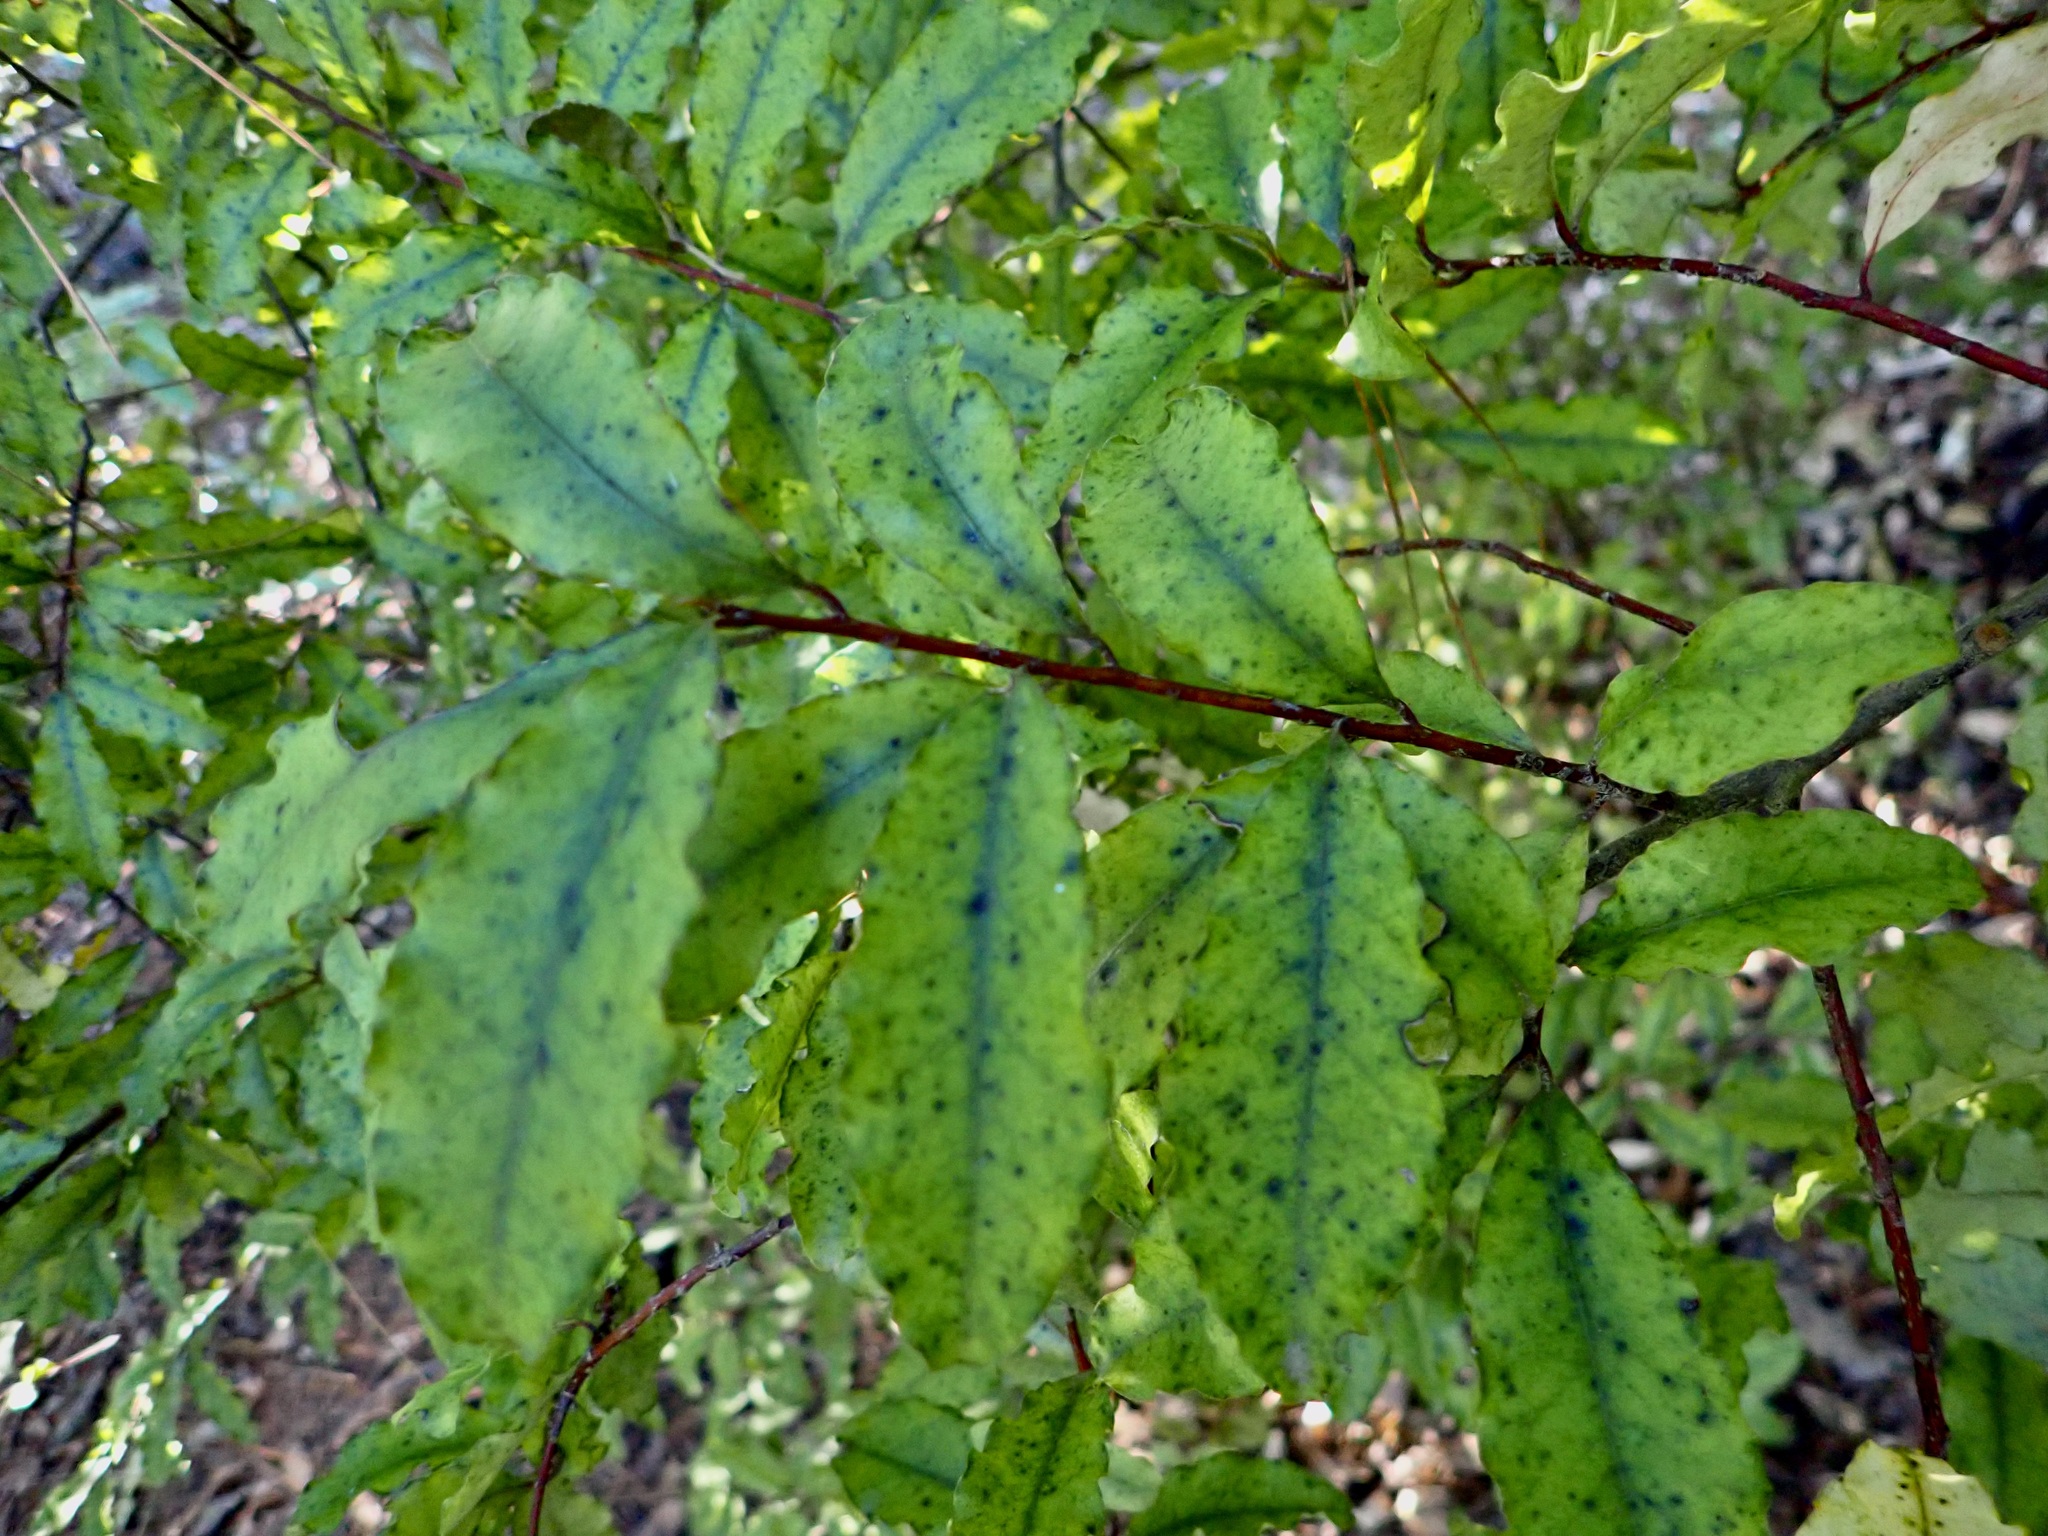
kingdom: Plantae
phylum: Tracheophyta
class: Magnoliopsida
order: Ericales
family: Primulaceae
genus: Myrsine
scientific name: Myrsine australis
